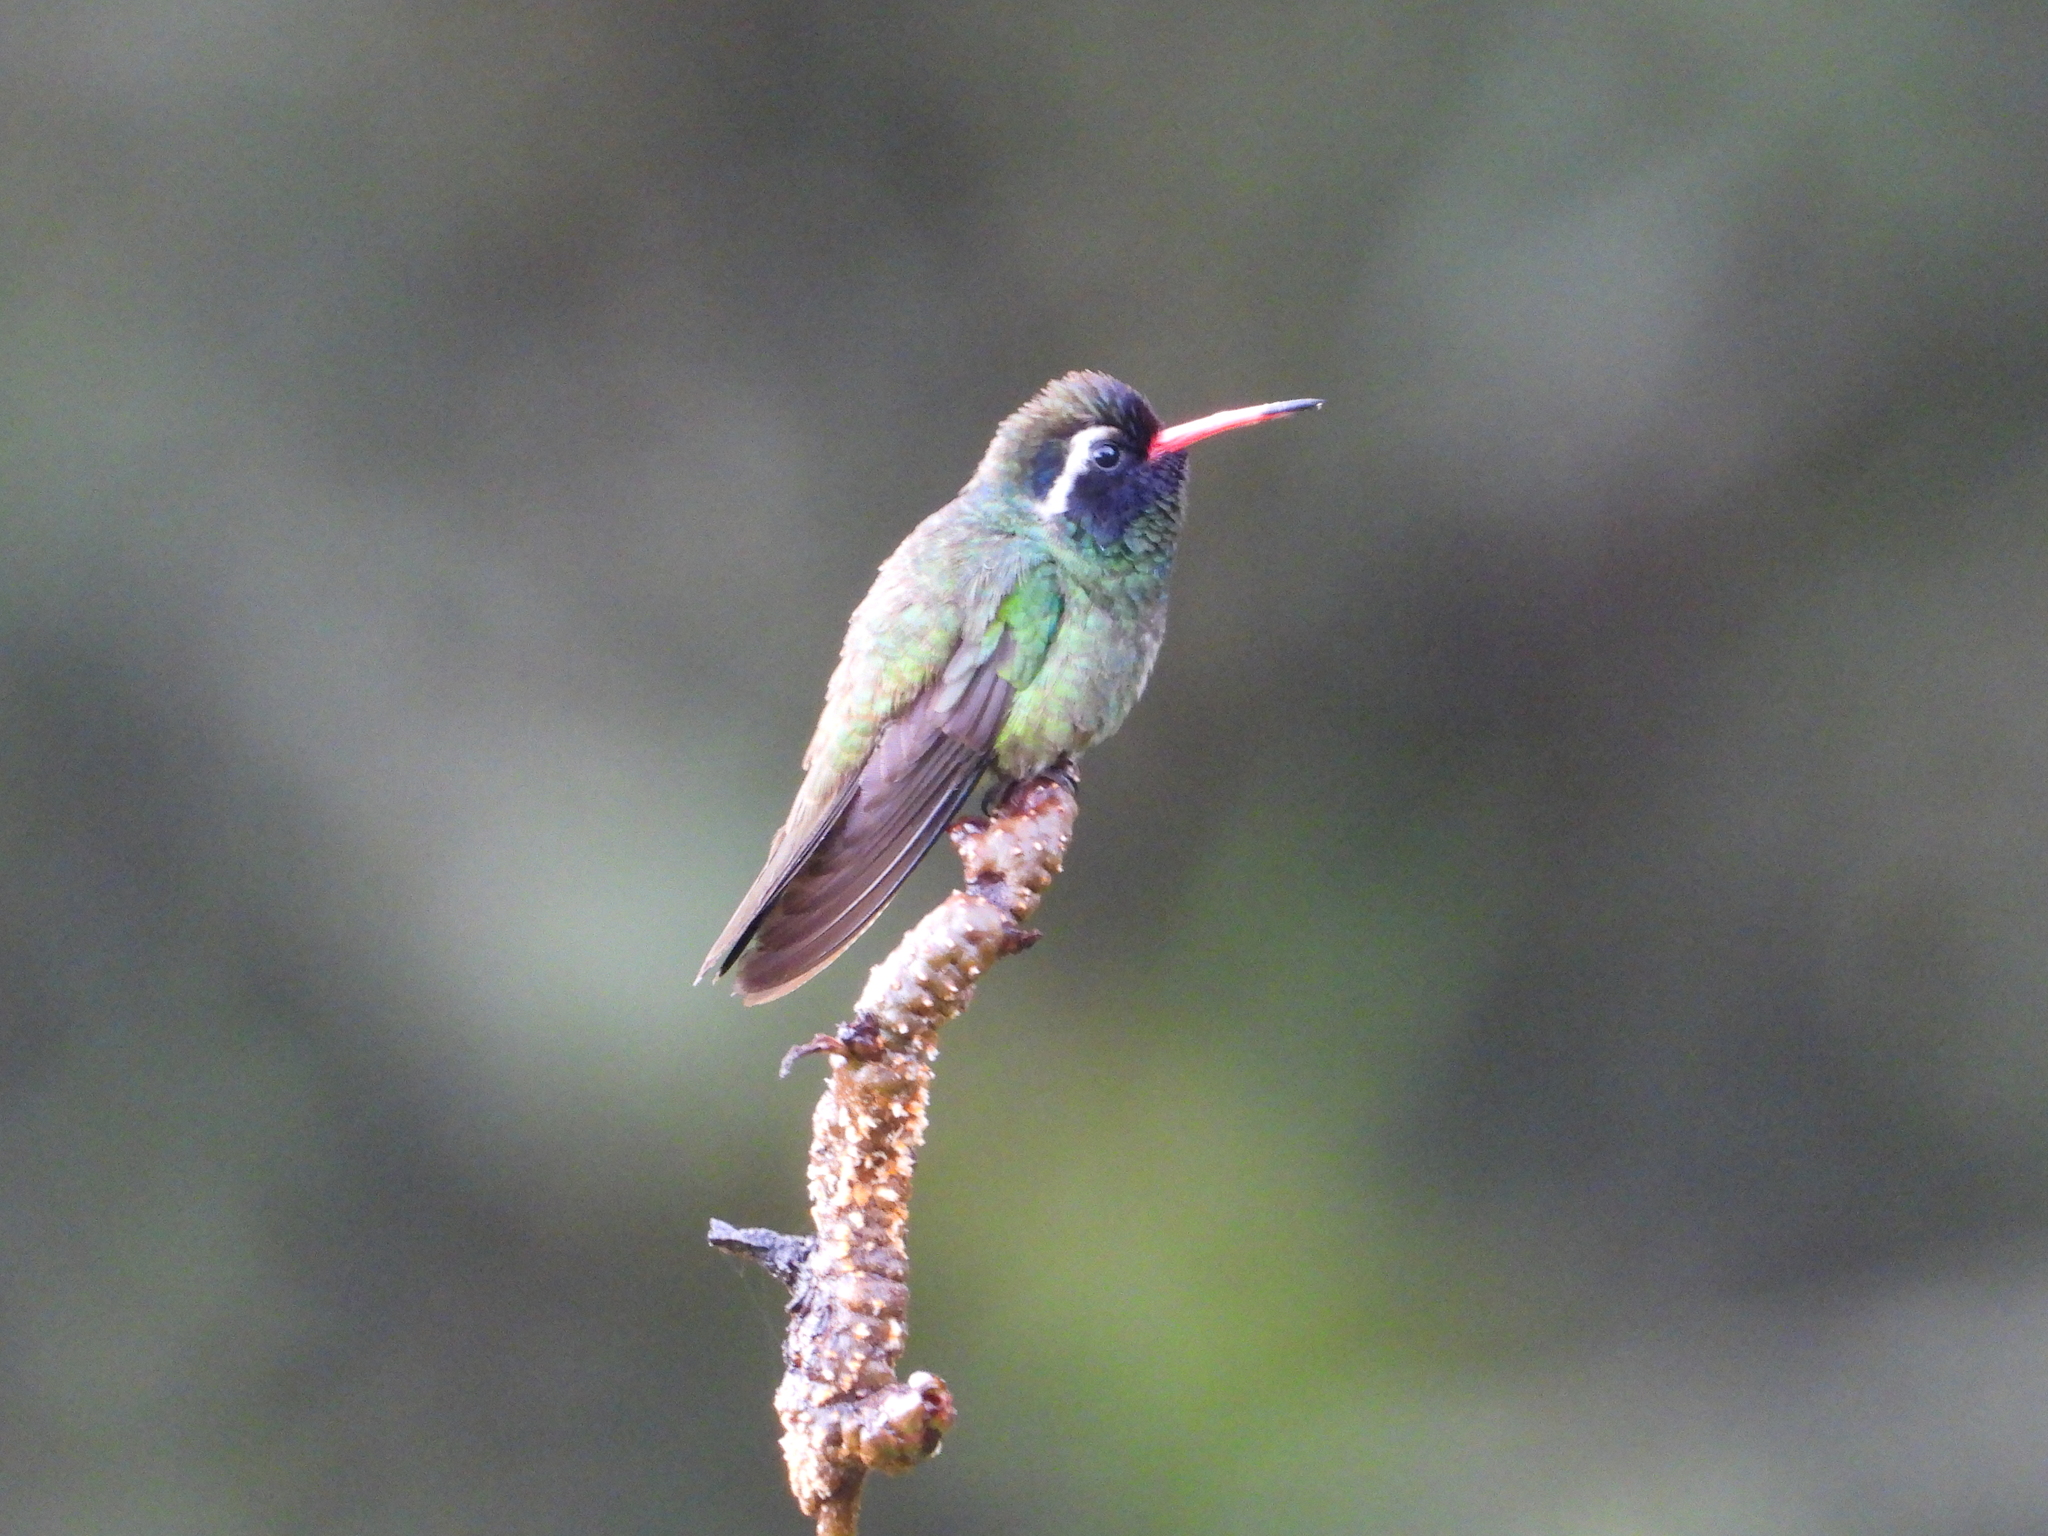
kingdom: Animalia
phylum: Chordata
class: Aves
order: Apodiformes
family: Trochilidae
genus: Basilinna
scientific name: Basilinna leucotis
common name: White-eared hummingbird
